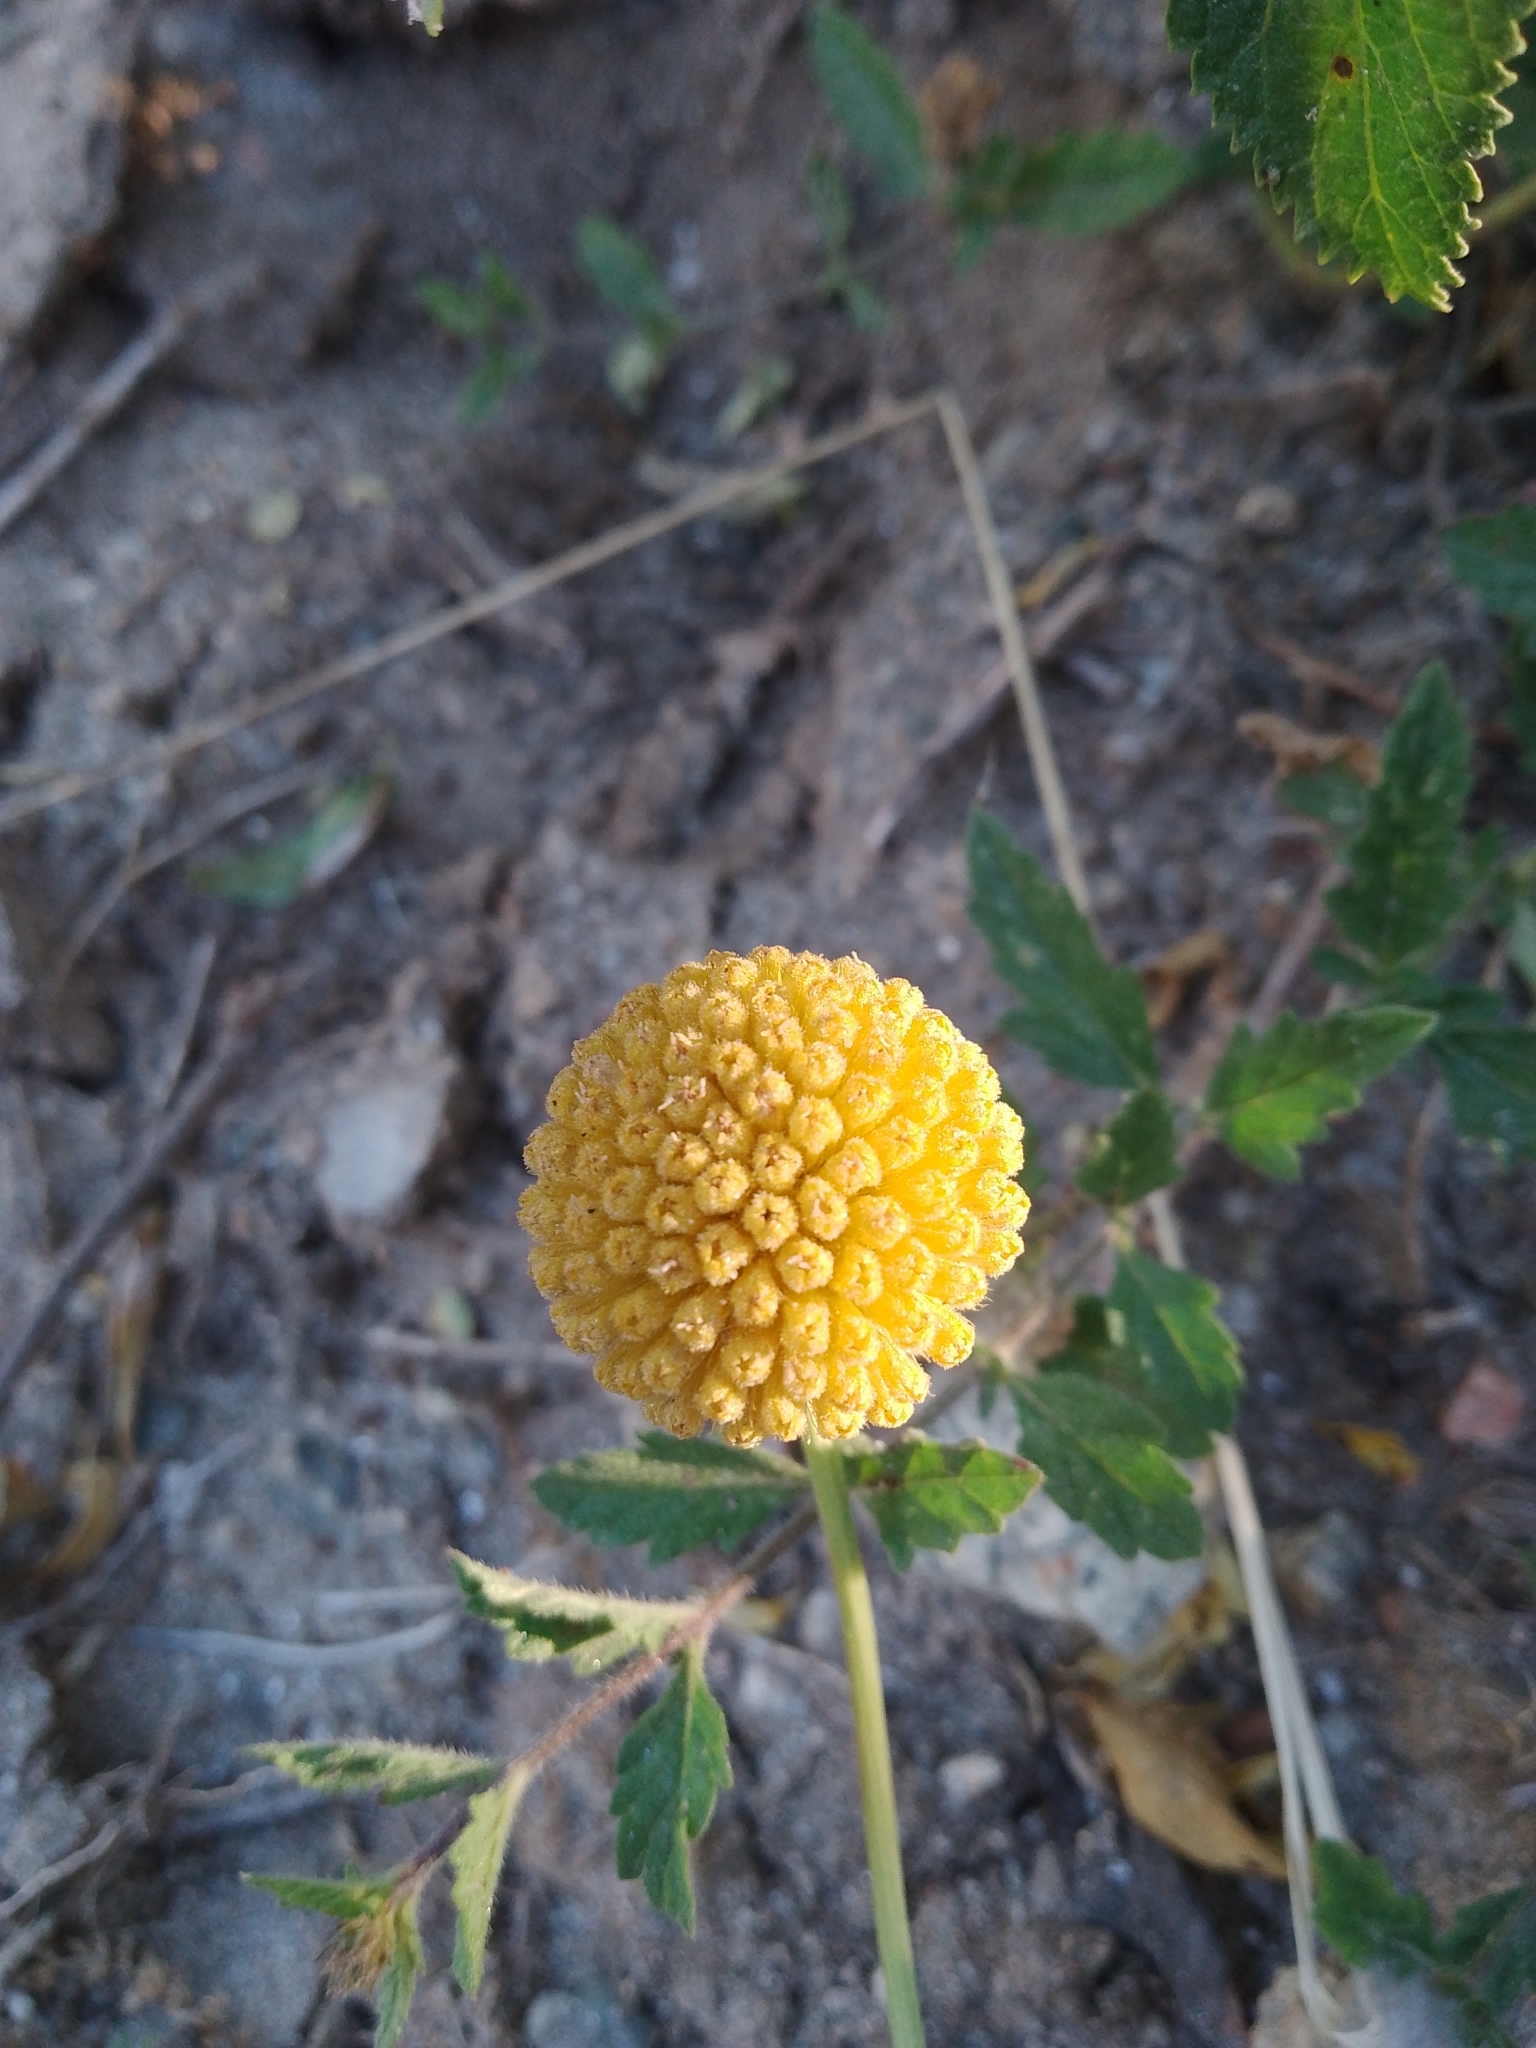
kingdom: Plantae
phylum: Tracheophyta
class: Magnoliopsida
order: Asterales
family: Asteraceae
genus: Gaillardia
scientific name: Gaillardia megapotamica
